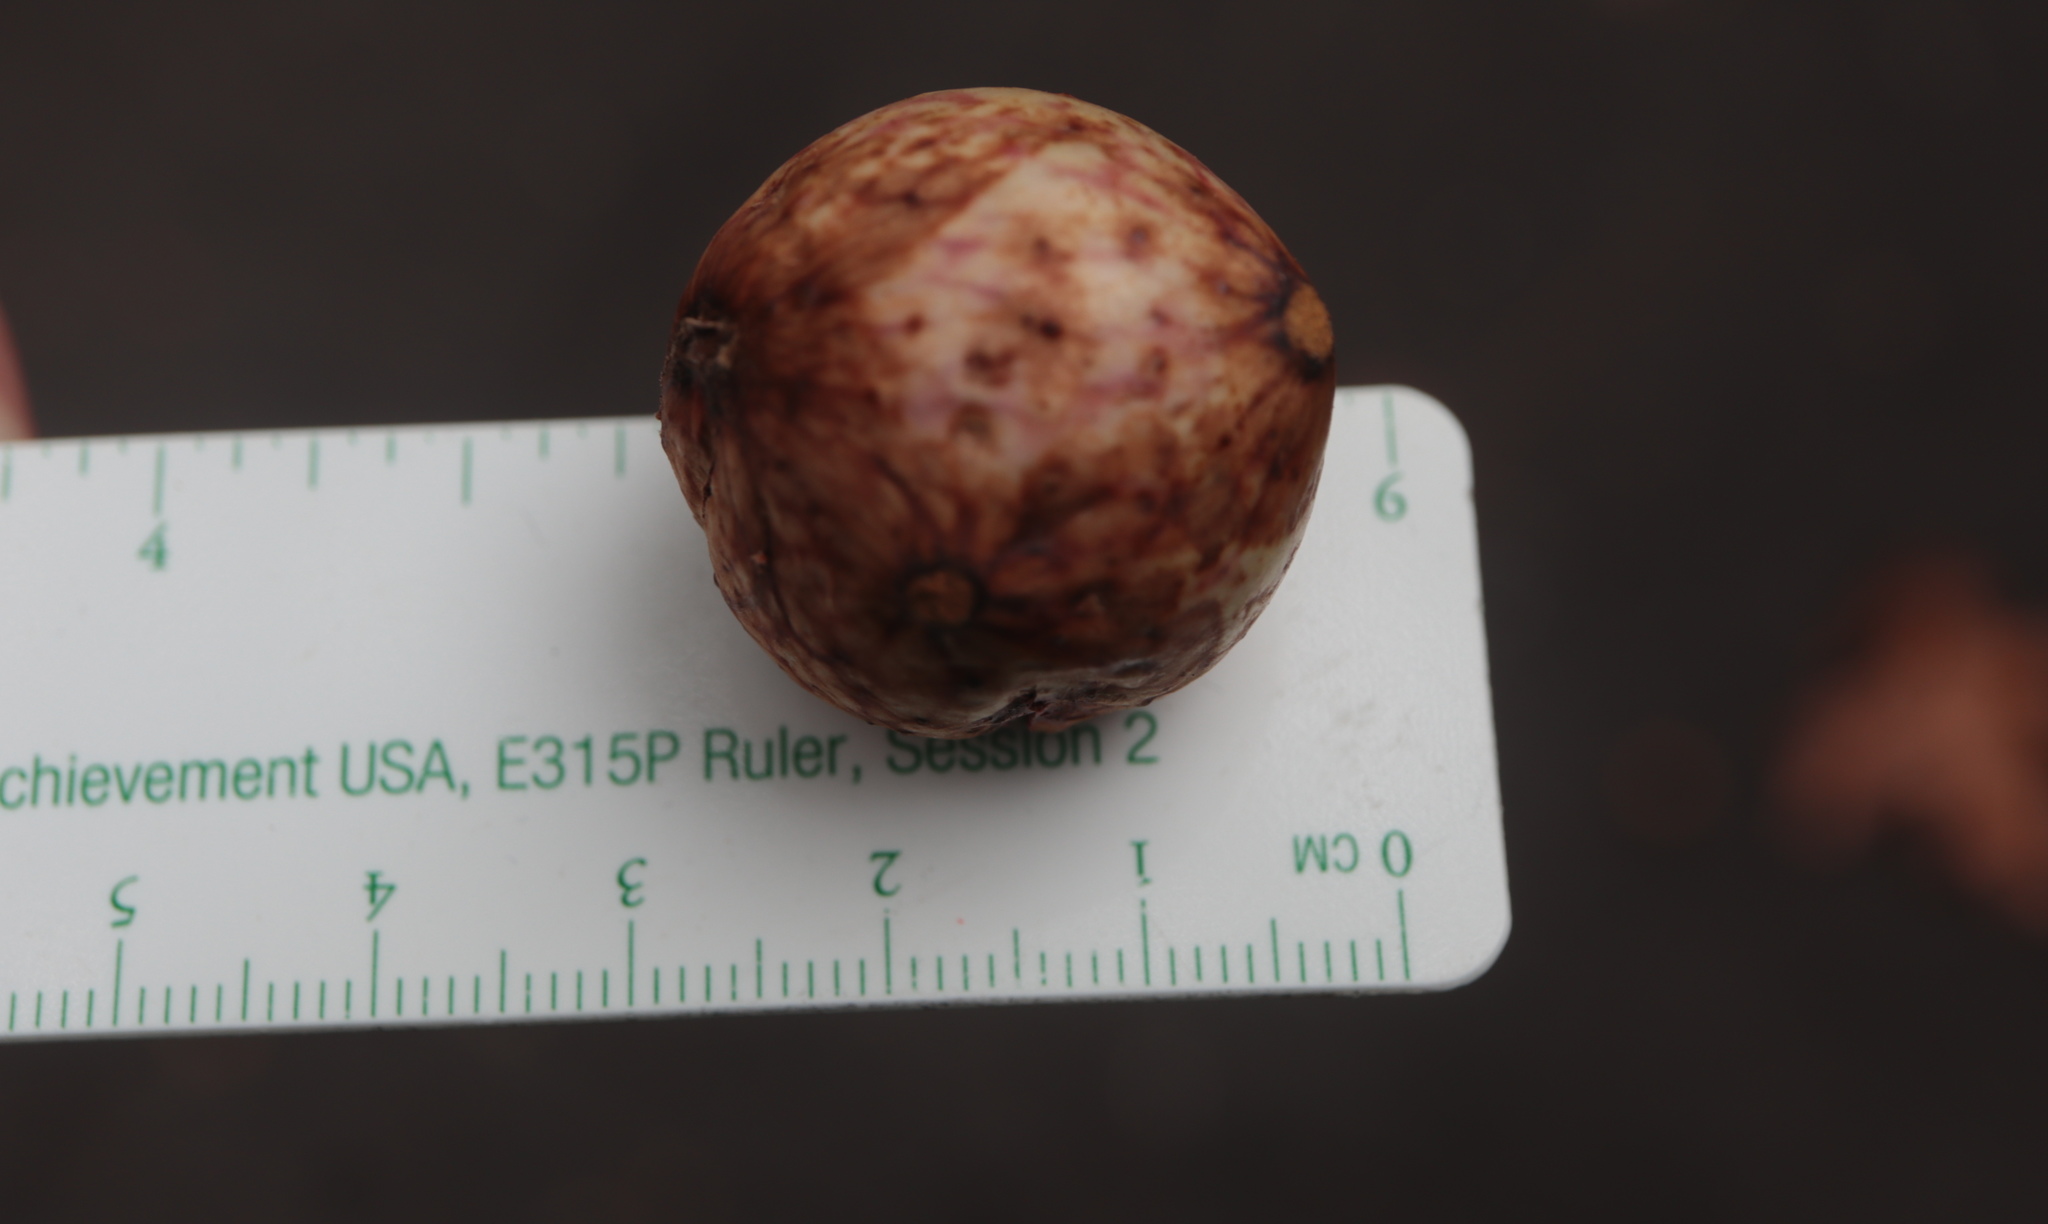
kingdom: Animalia
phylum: Arthropoda
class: Insecta
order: Hymenoptera
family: Cynipidae
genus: Amphibolips
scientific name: Amphibolips
